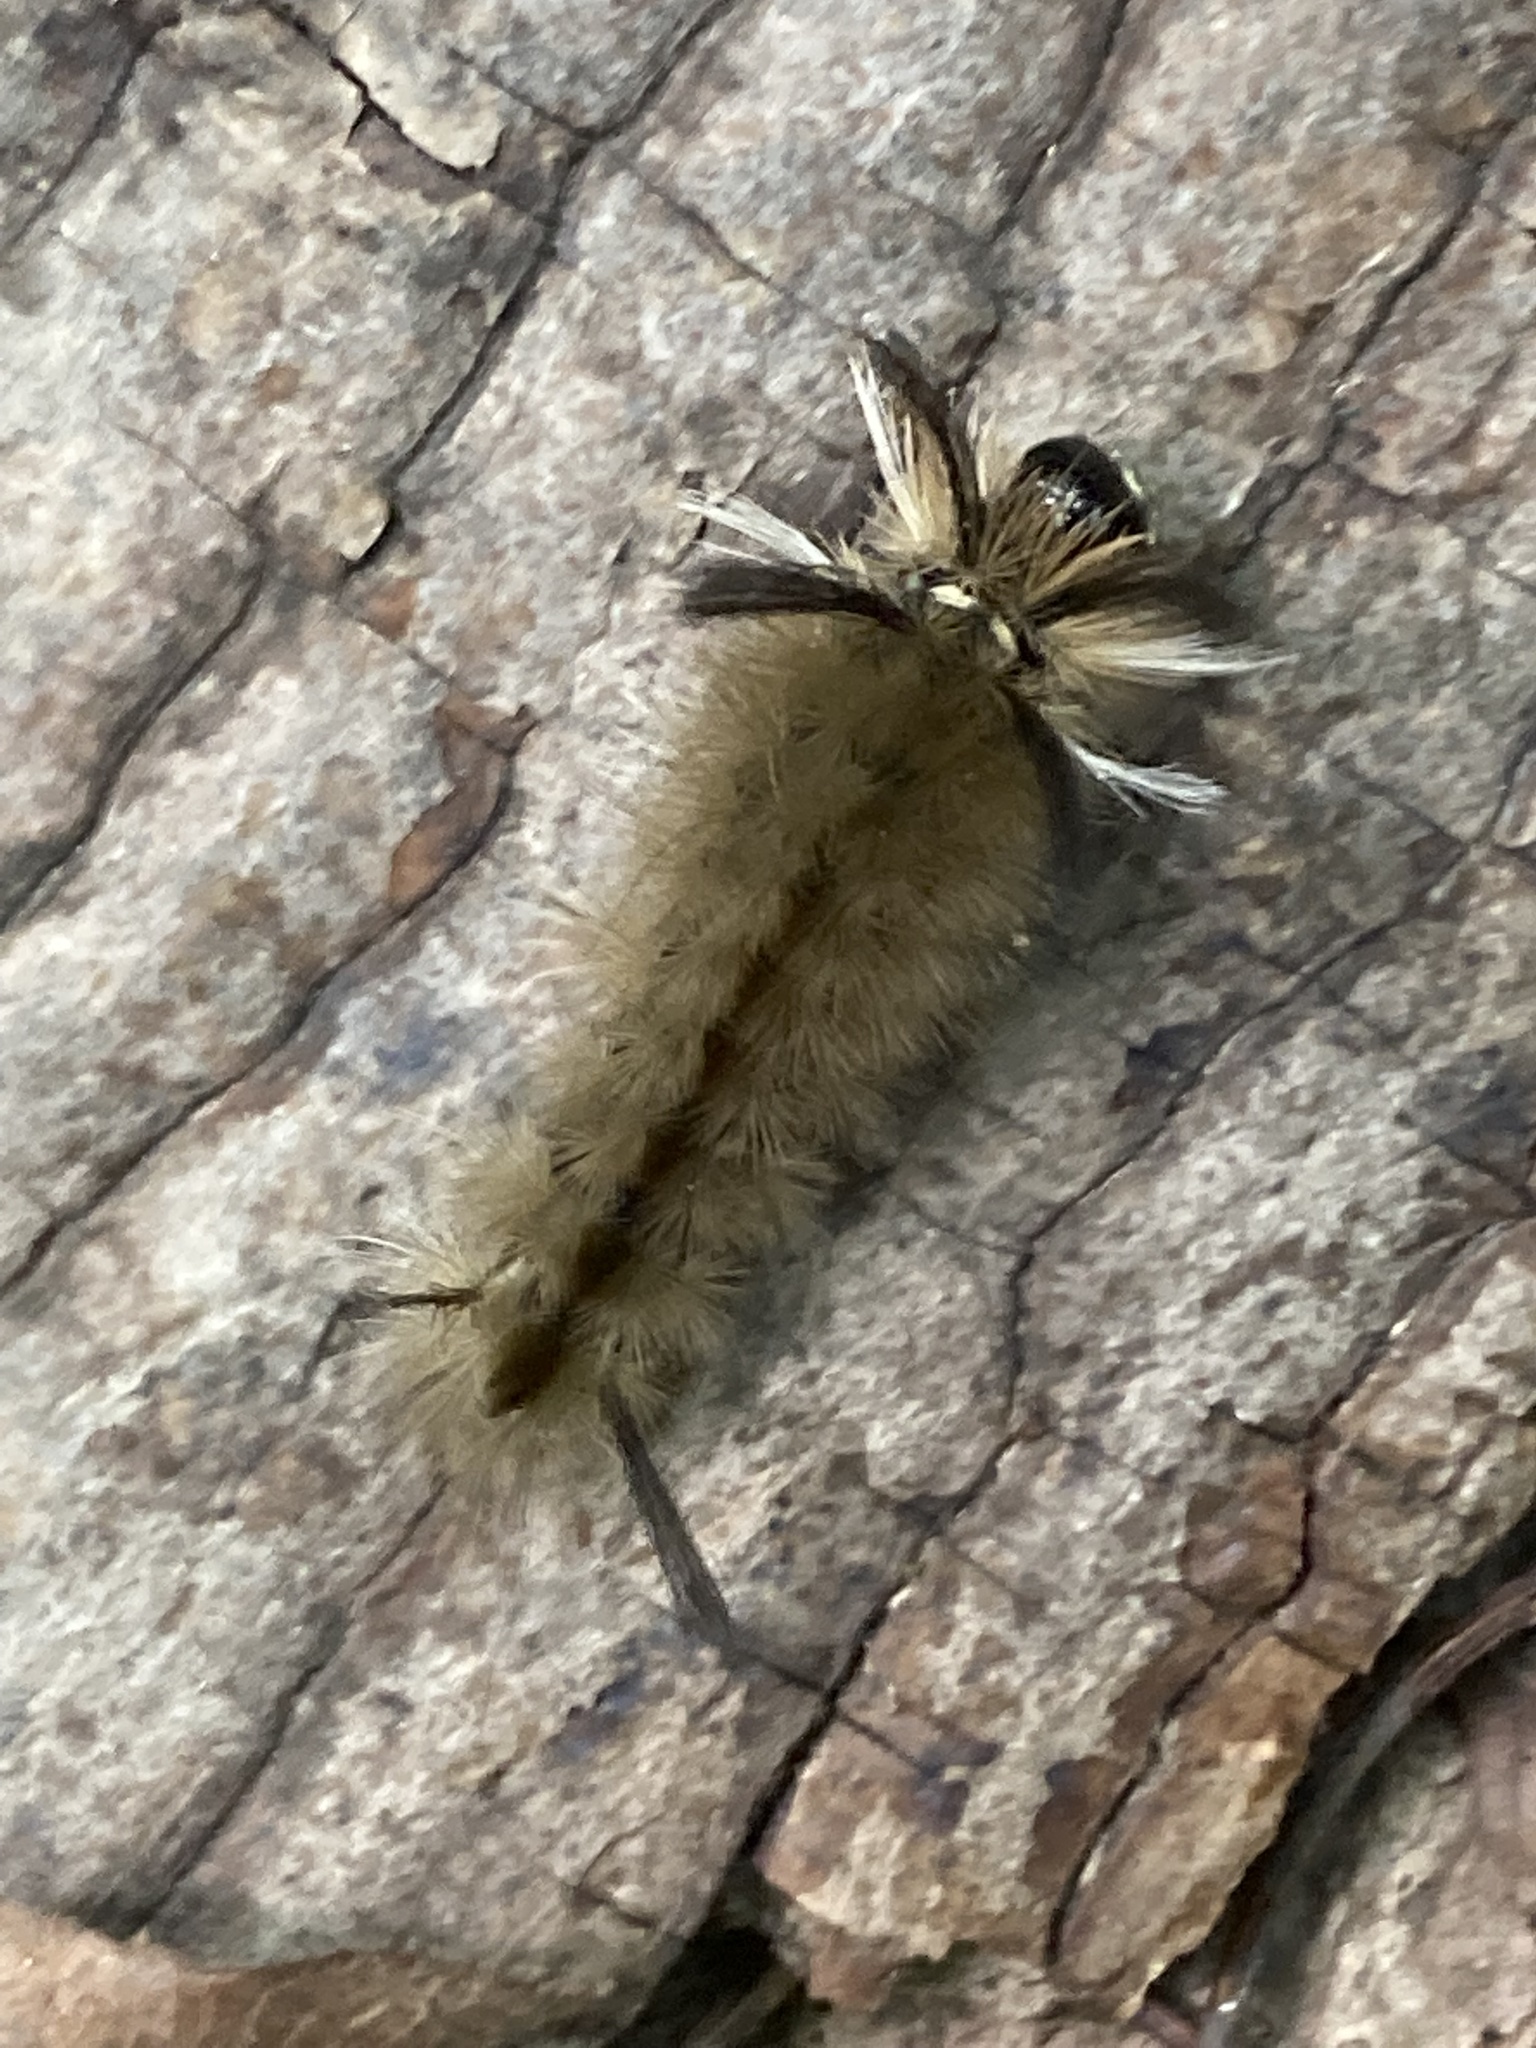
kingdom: Animalia
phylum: Arthropoda
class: Insecta
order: Lepidoptera
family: Erebidae
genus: Halysidota
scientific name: Halysidota tessellaris
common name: Banded tussock moth
